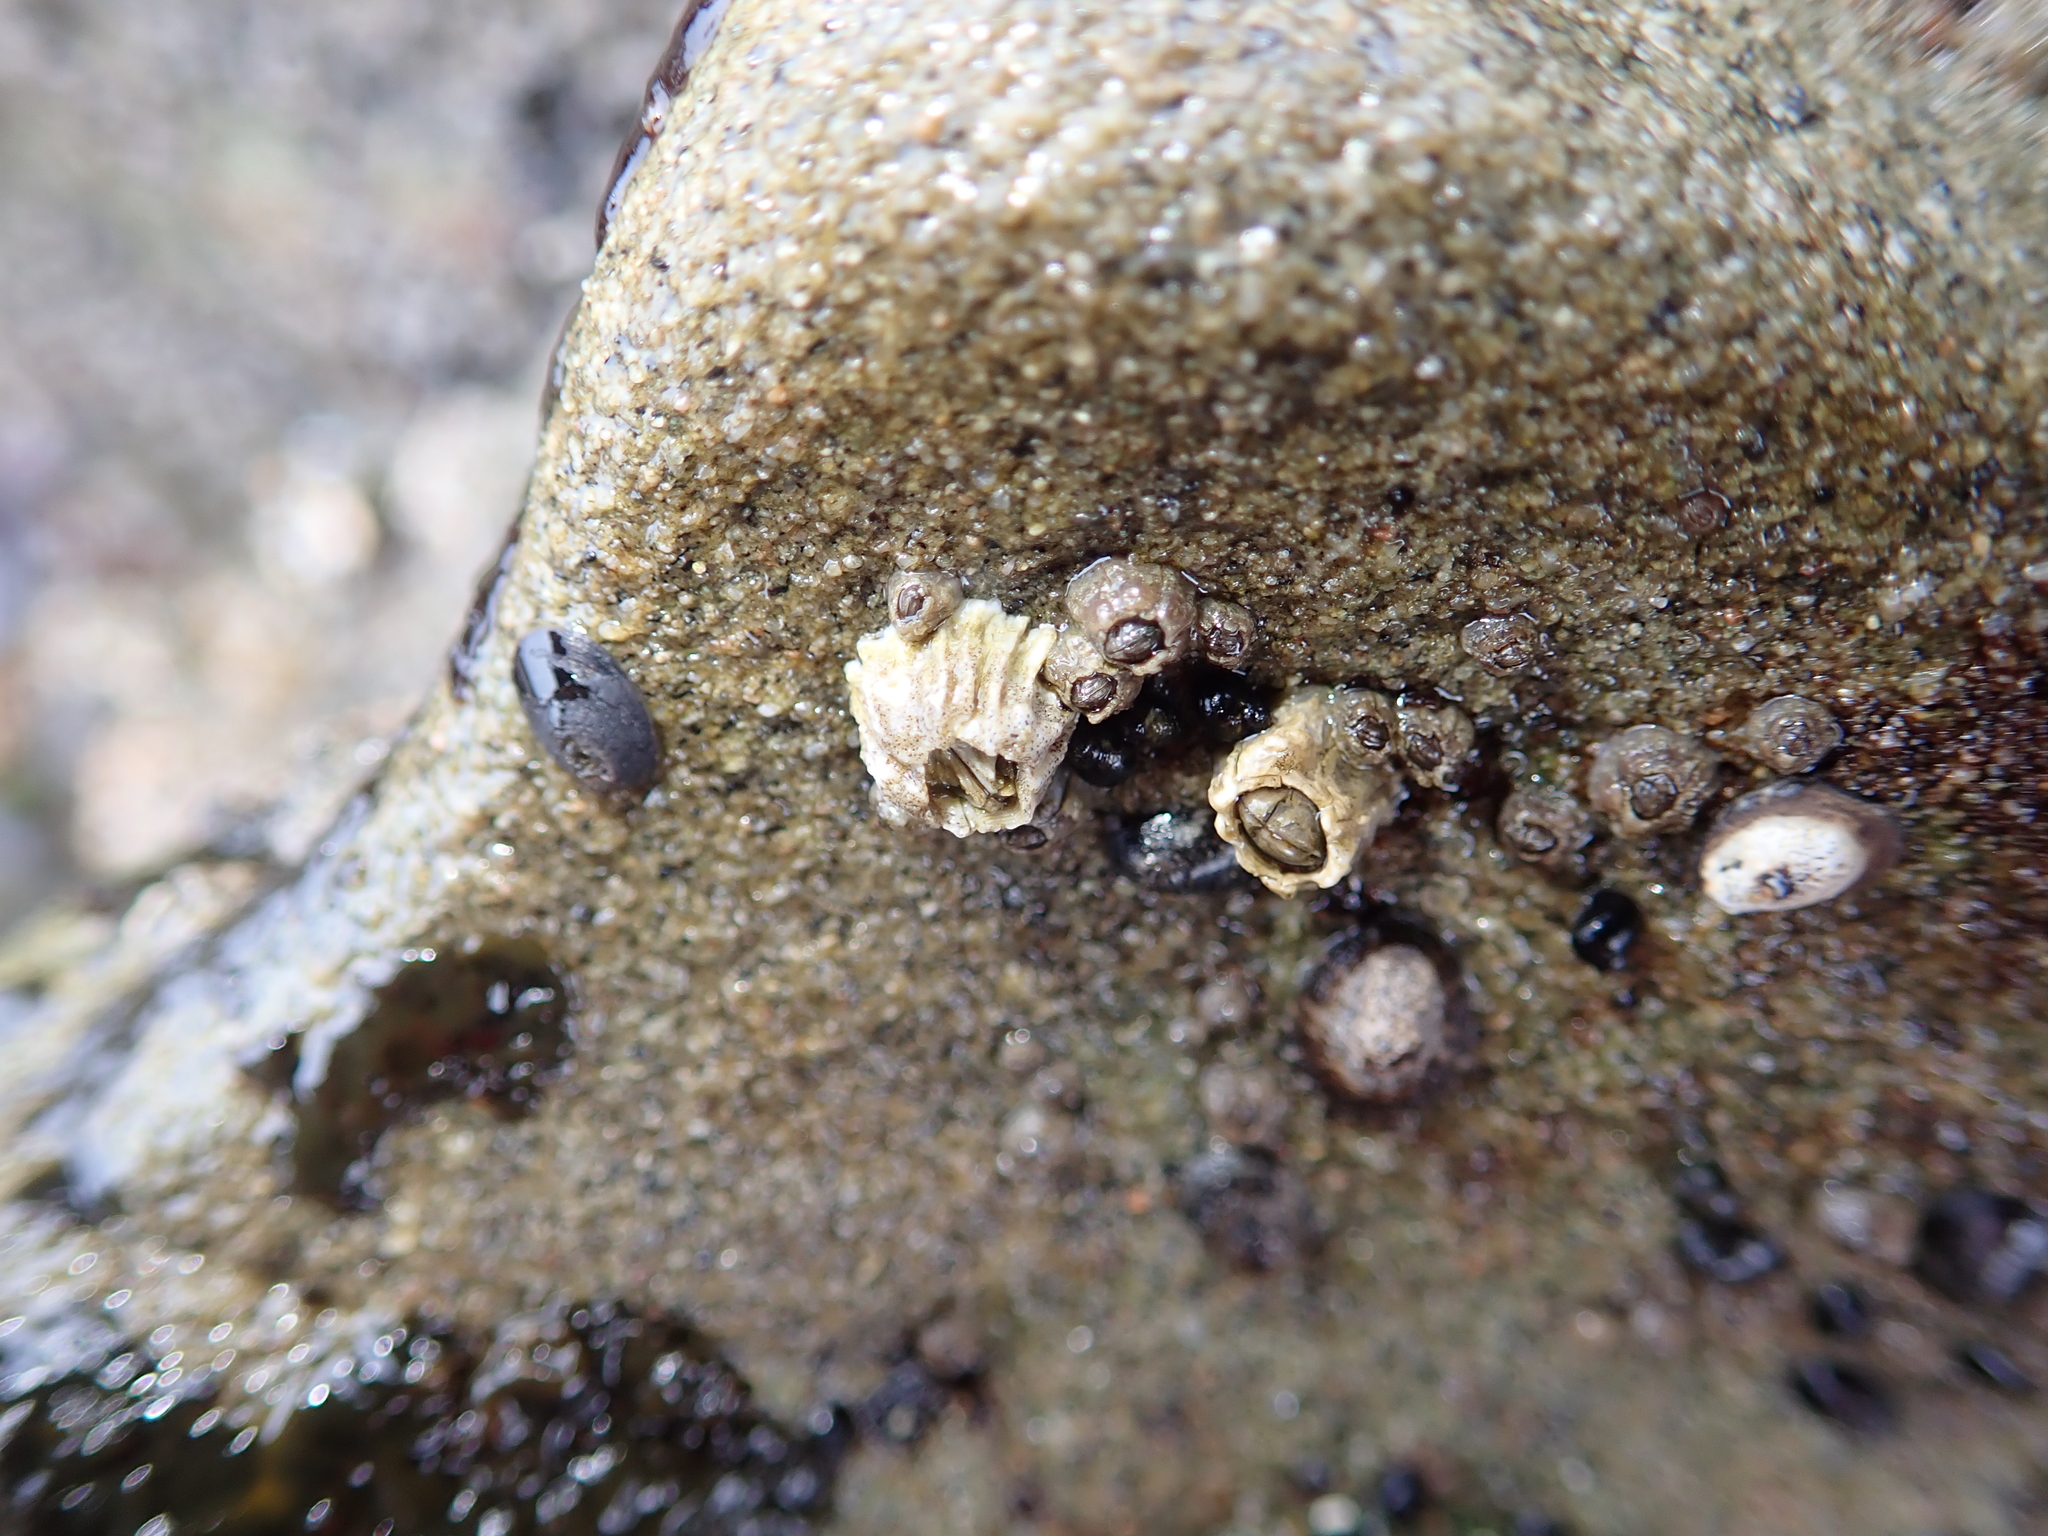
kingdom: Animalia
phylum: Arthropoda
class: Maxillopoda
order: Sessilia
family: Balanidae
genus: Balanus
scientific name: Balanus glandula
